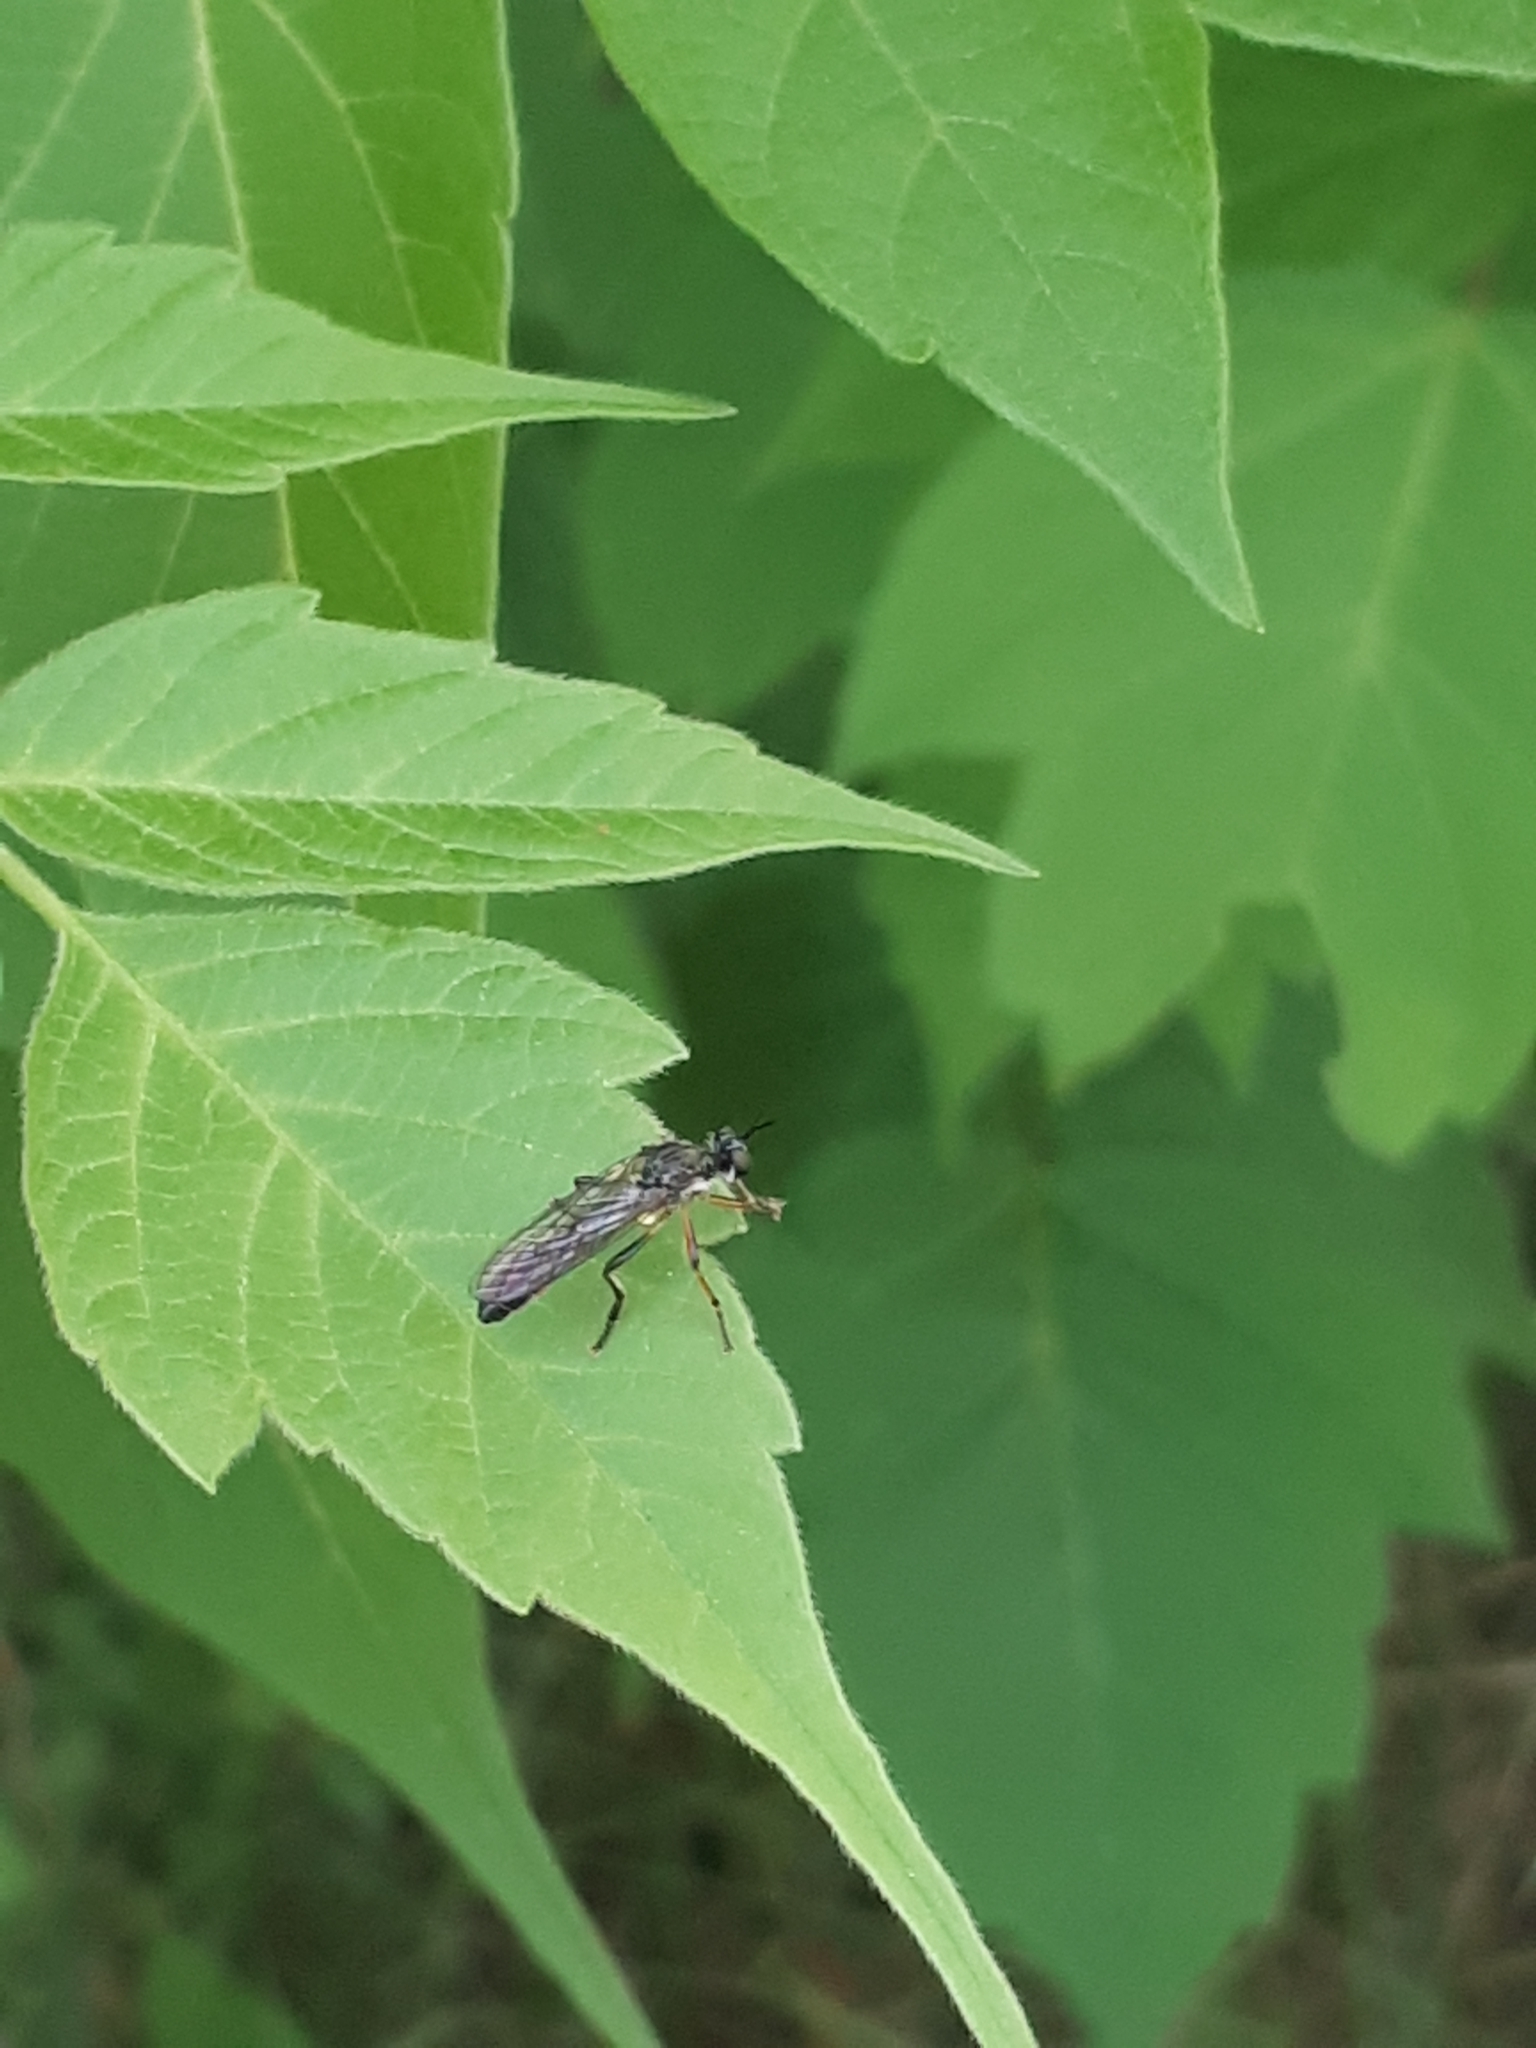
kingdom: Animalia
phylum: Arthropoda
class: Insecta
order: Diptera
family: Asilidae
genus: Dioctria
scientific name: Dioctria hyalipennis
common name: Stripe-legged robberfly
